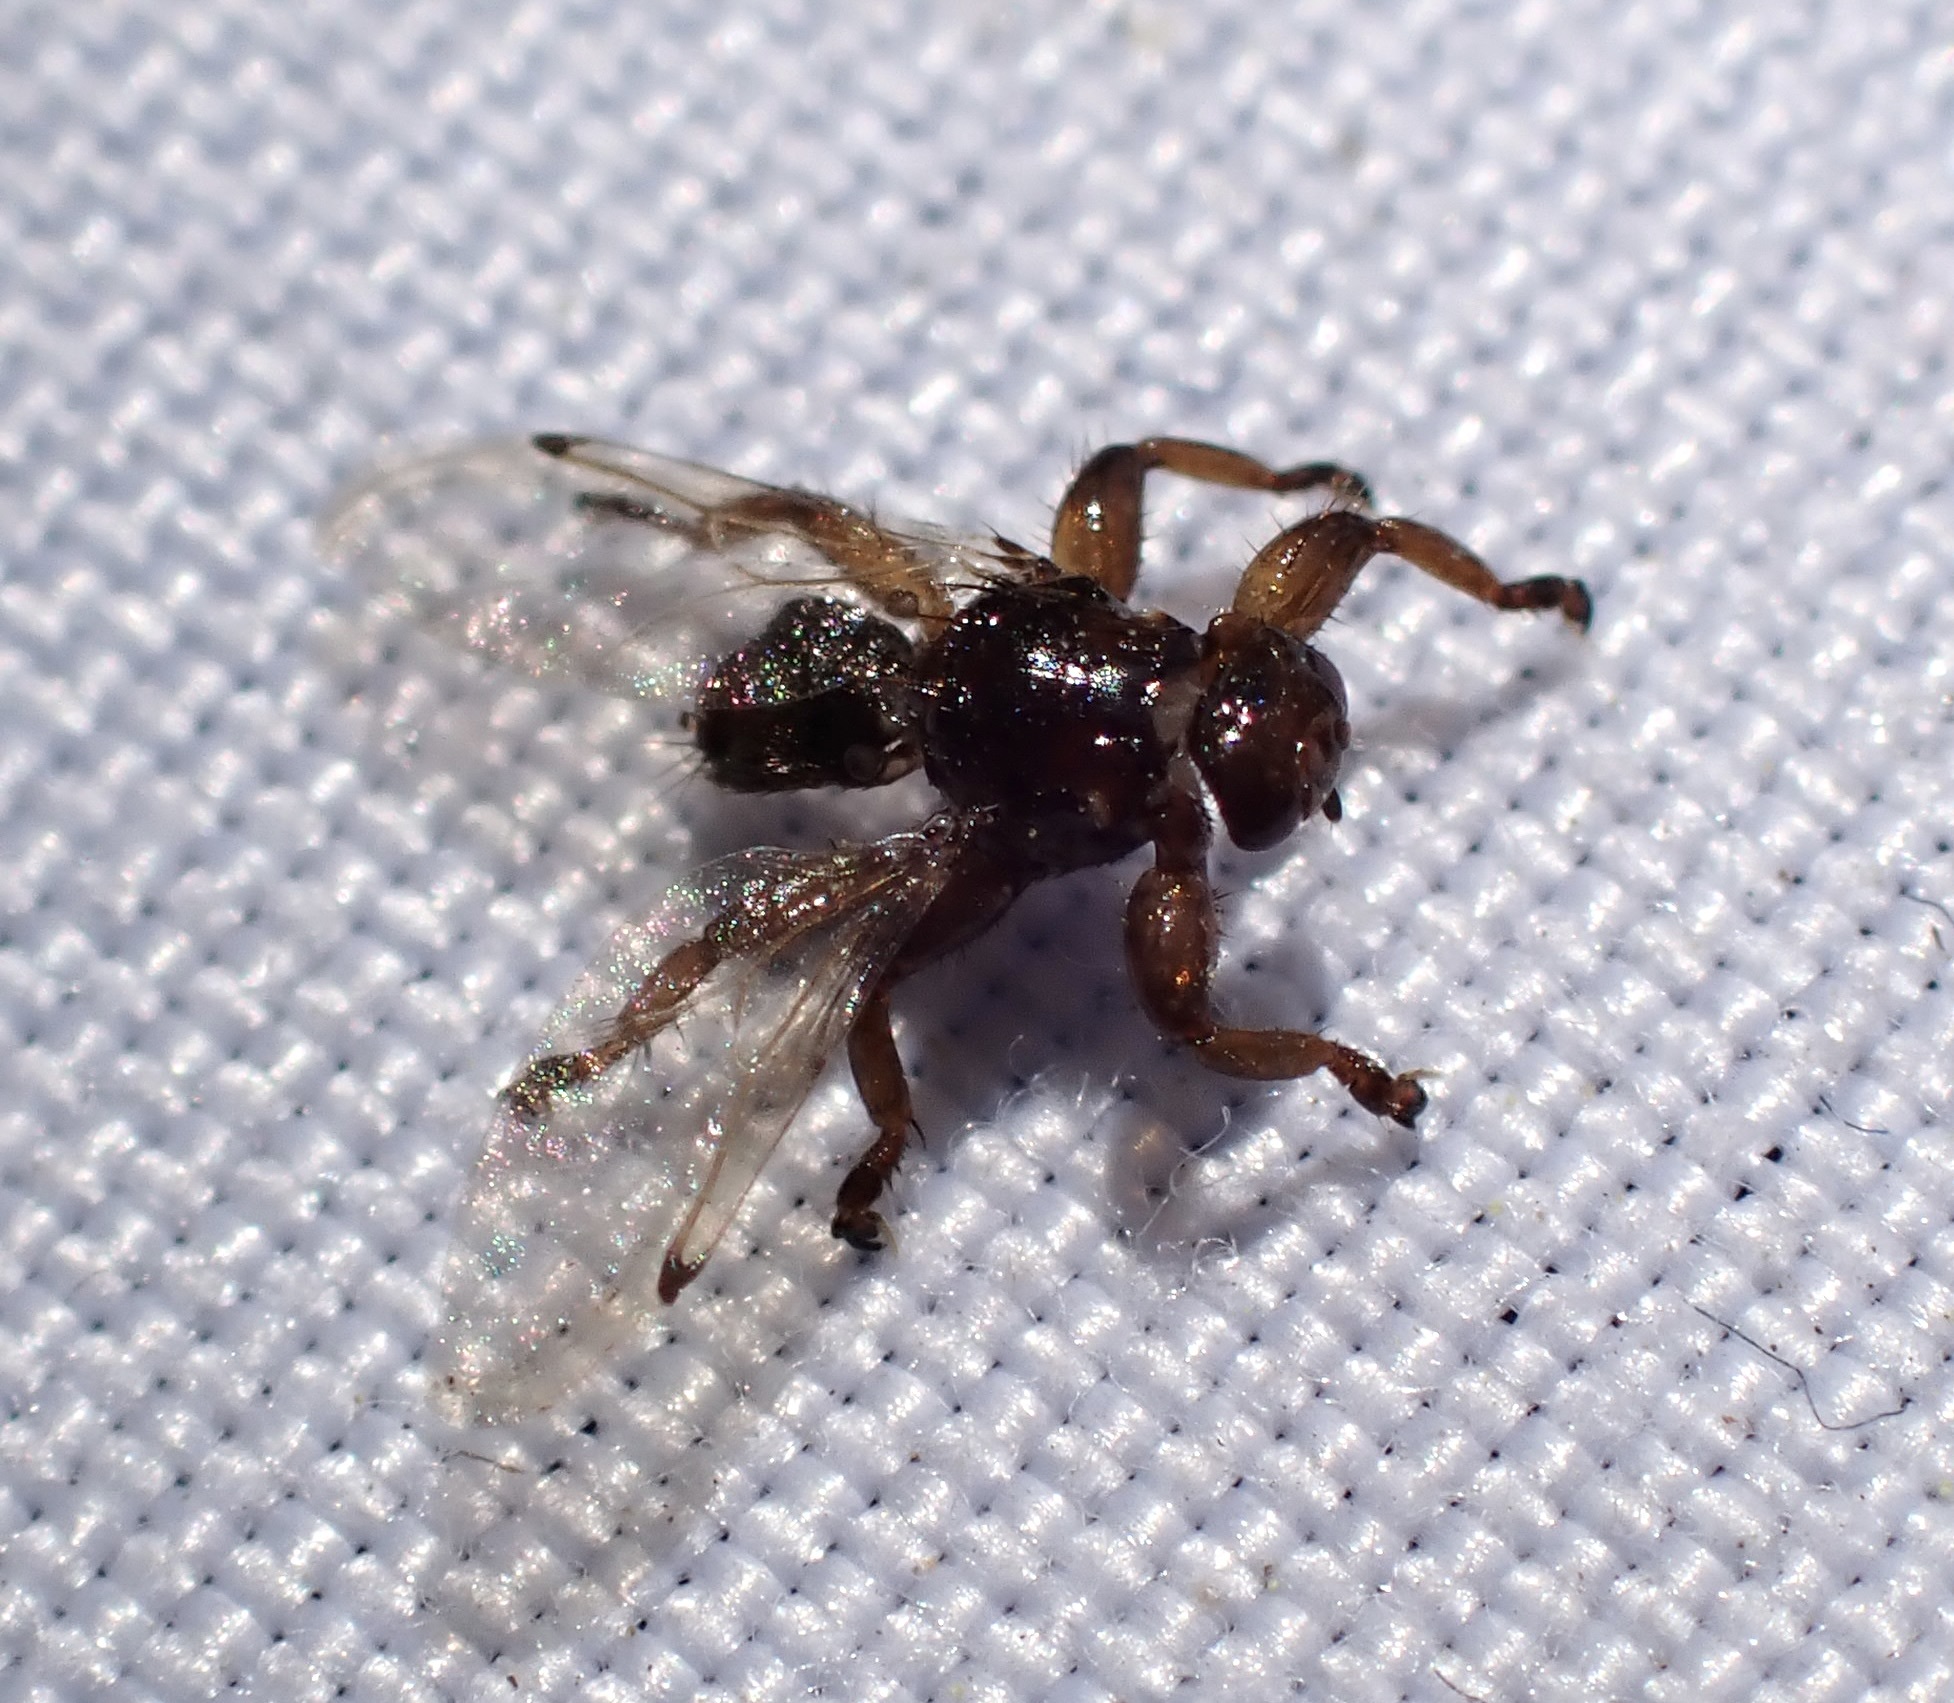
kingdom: Animalia
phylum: Arthropoda
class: Insecta
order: Diptera
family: Hippoboscidae
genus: Lipoptena
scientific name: Lipoptena depressa
